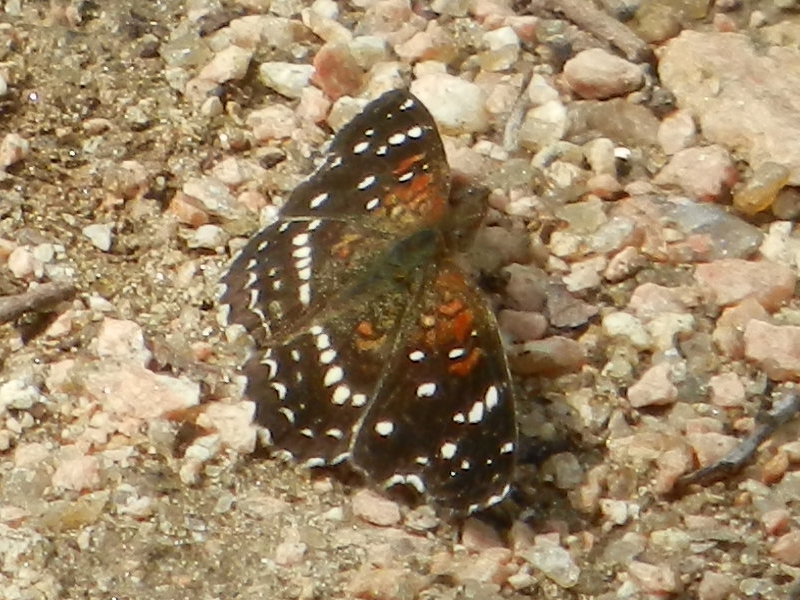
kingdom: Animalia
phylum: Arthropoda
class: Insecta
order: Lepidoptera
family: Nymphalidae
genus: Anthanassa
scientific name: Anthanassa texana
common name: Texan crescent
